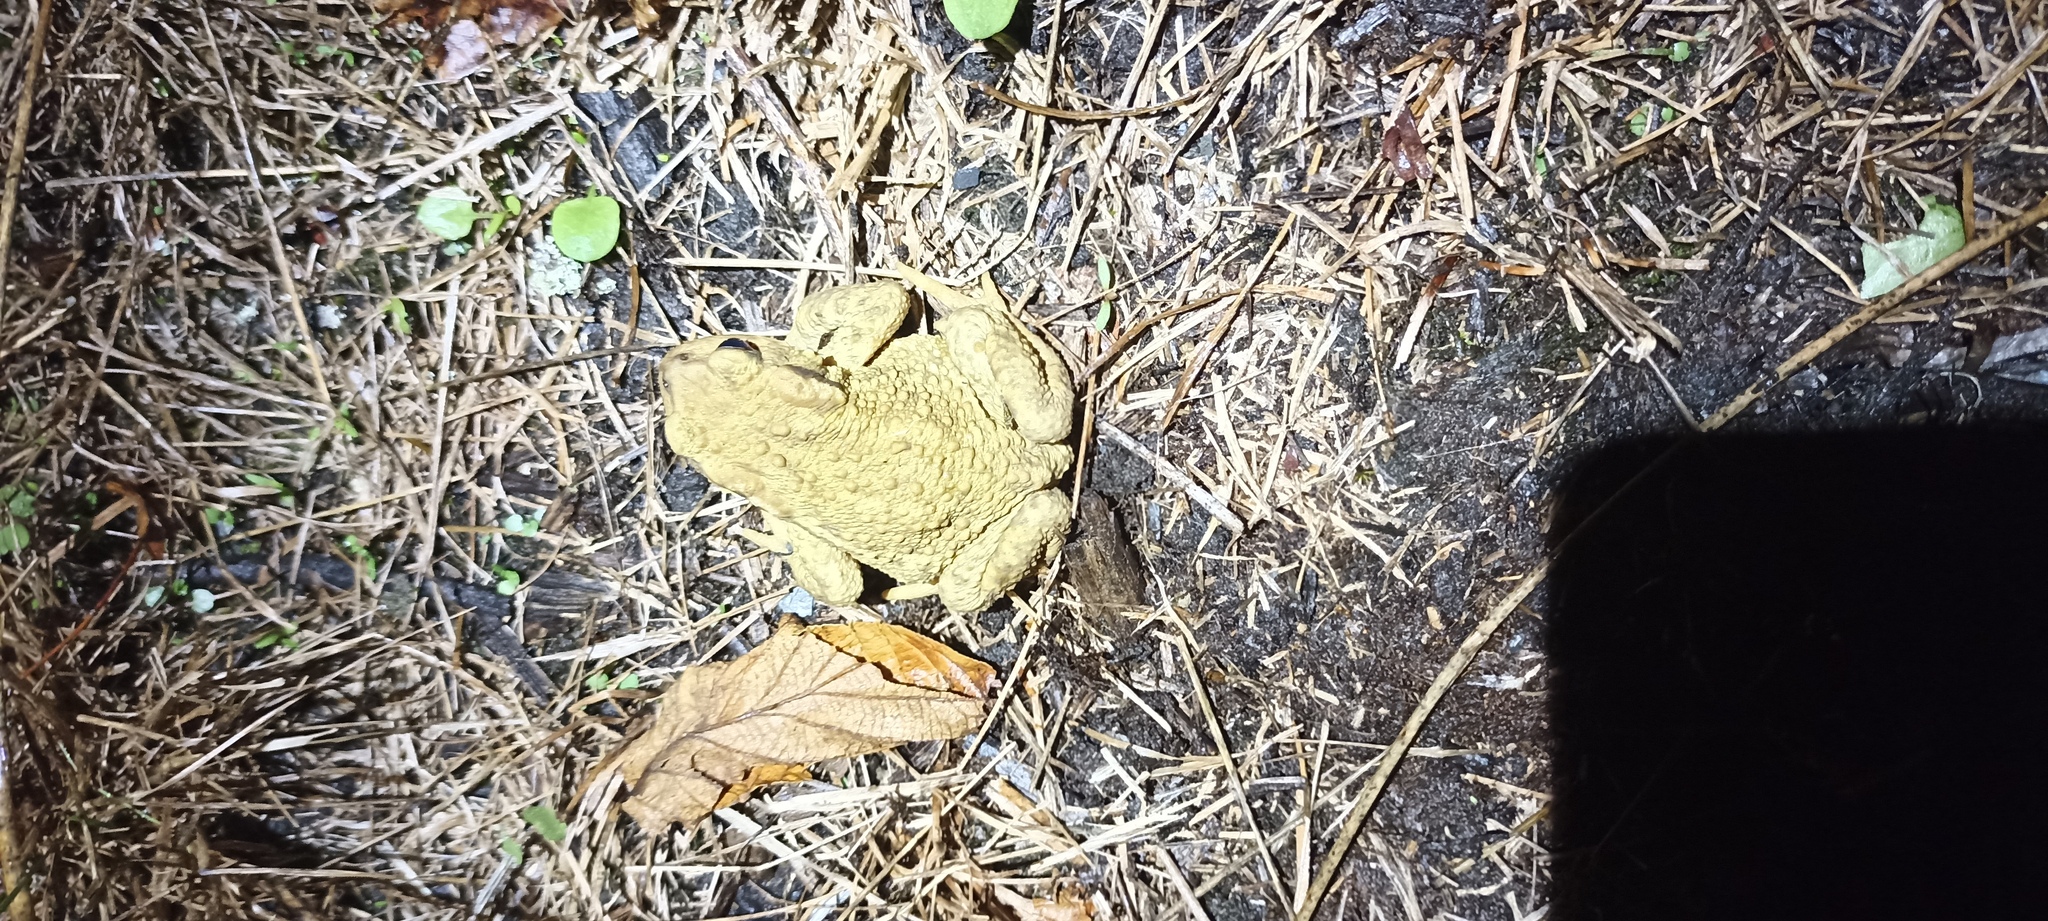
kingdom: Animalia
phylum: Chordata
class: Amphibia
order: Anura
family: Bufonidae
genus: Bufo
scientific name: Bufo spinosus
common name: Western common toad
